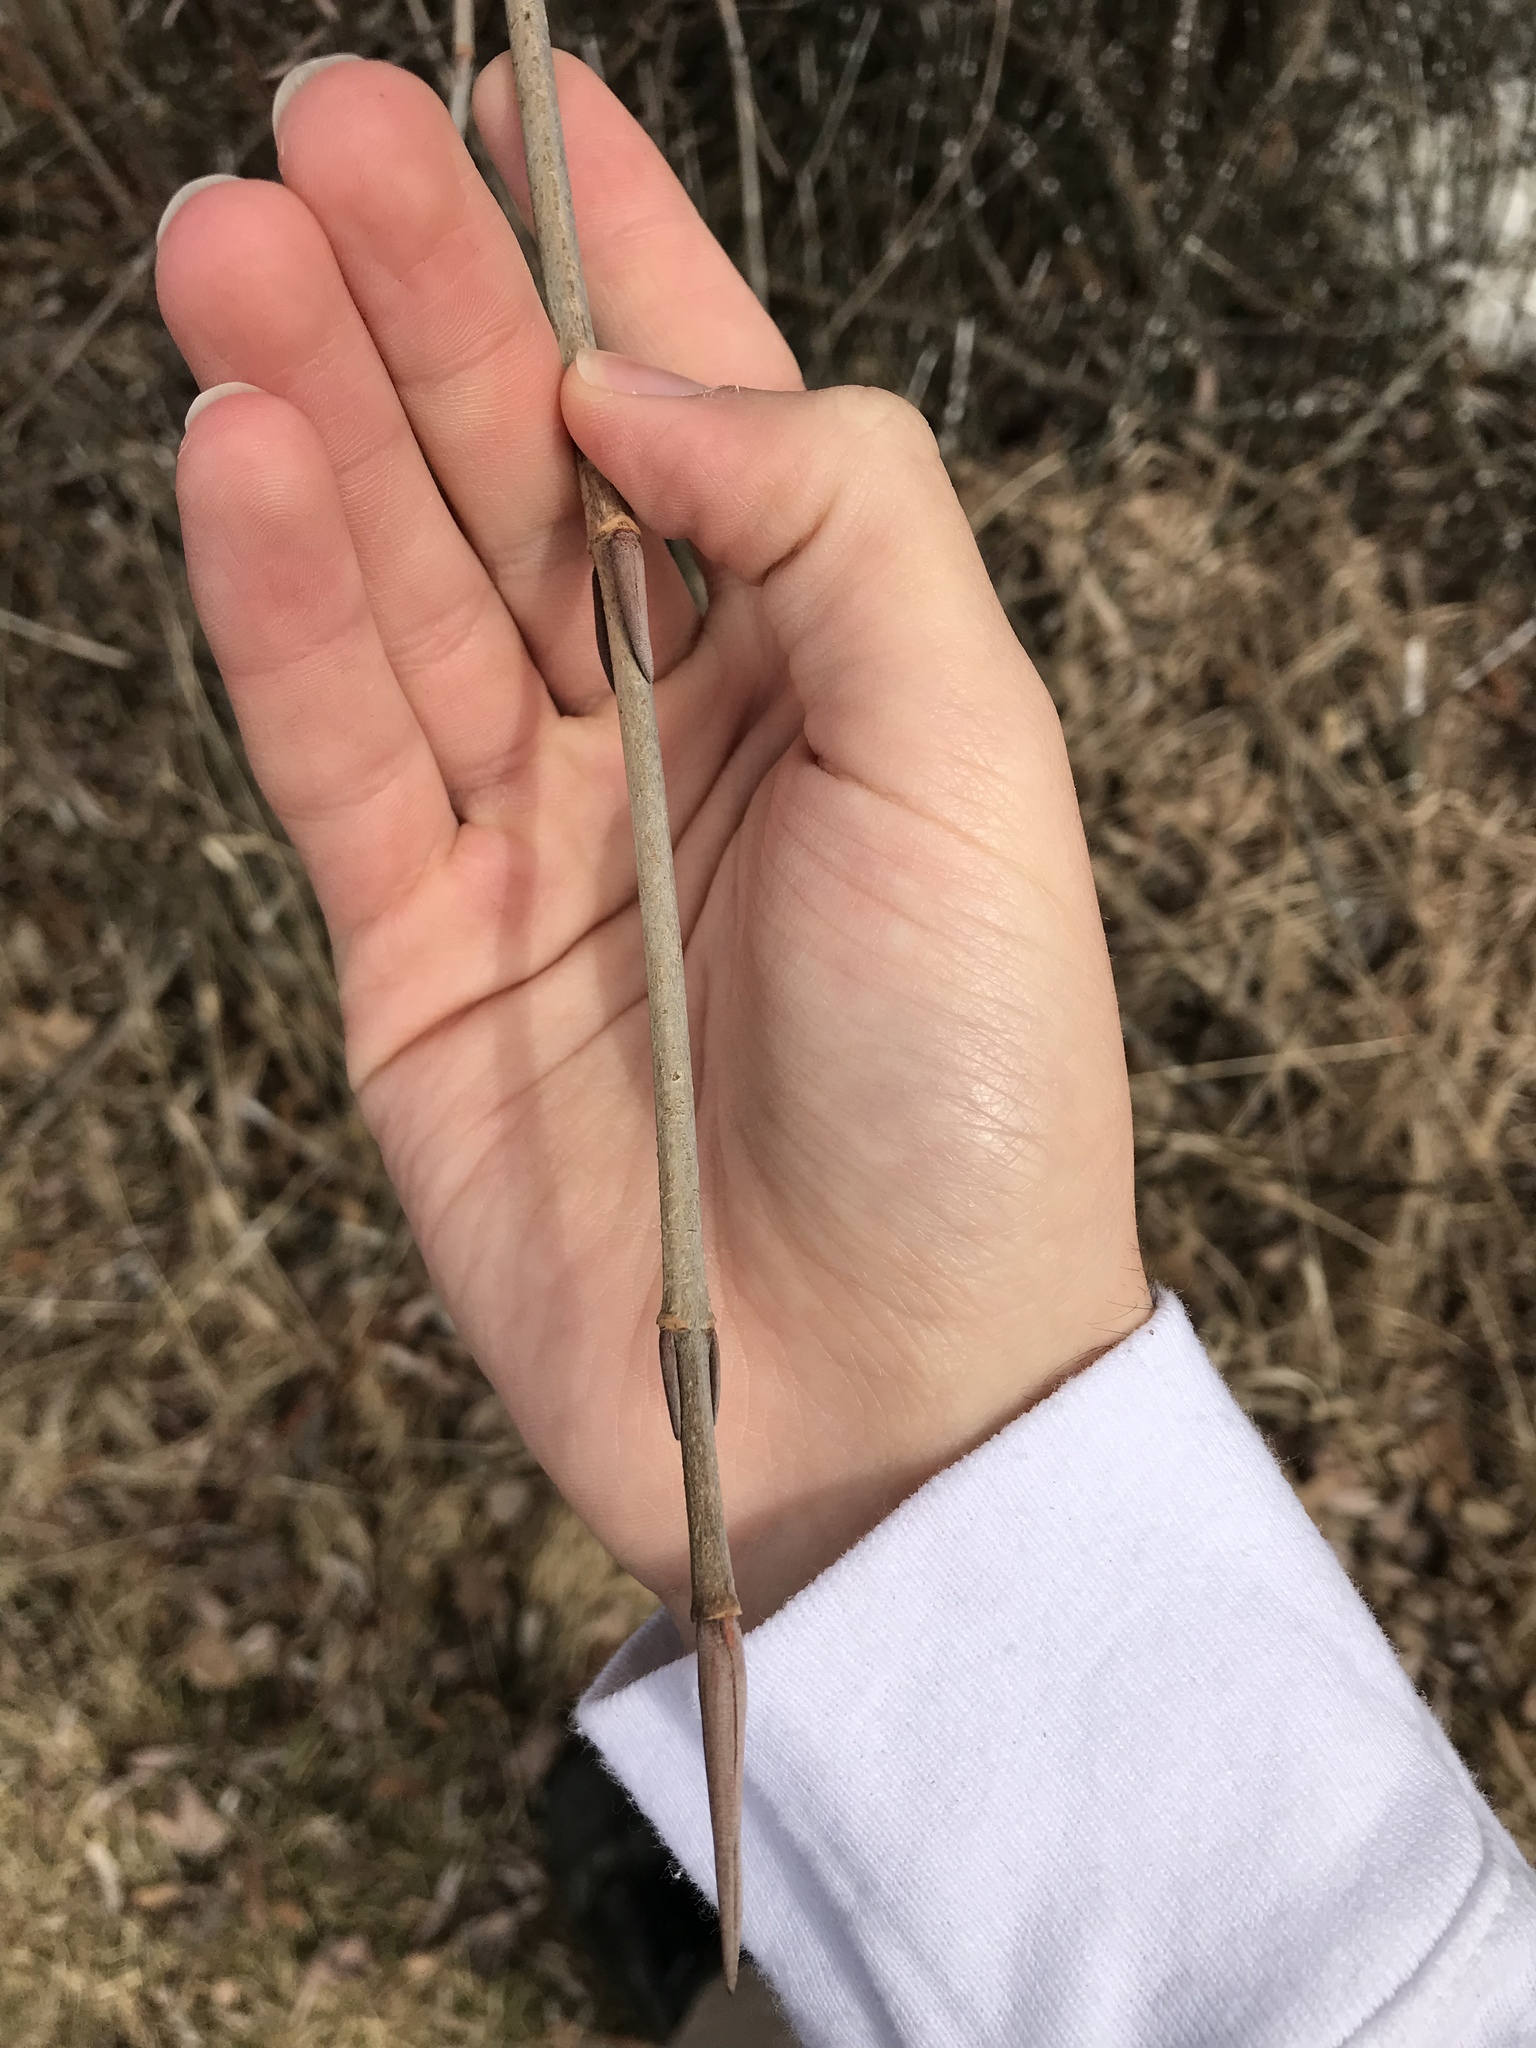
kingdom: Plantae
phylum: Tracheophyta
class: Magnoliopsida
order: Dipsacales
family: Viburnaceae
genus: Viburnum
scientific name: Viburnum lentago
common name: Black haw
